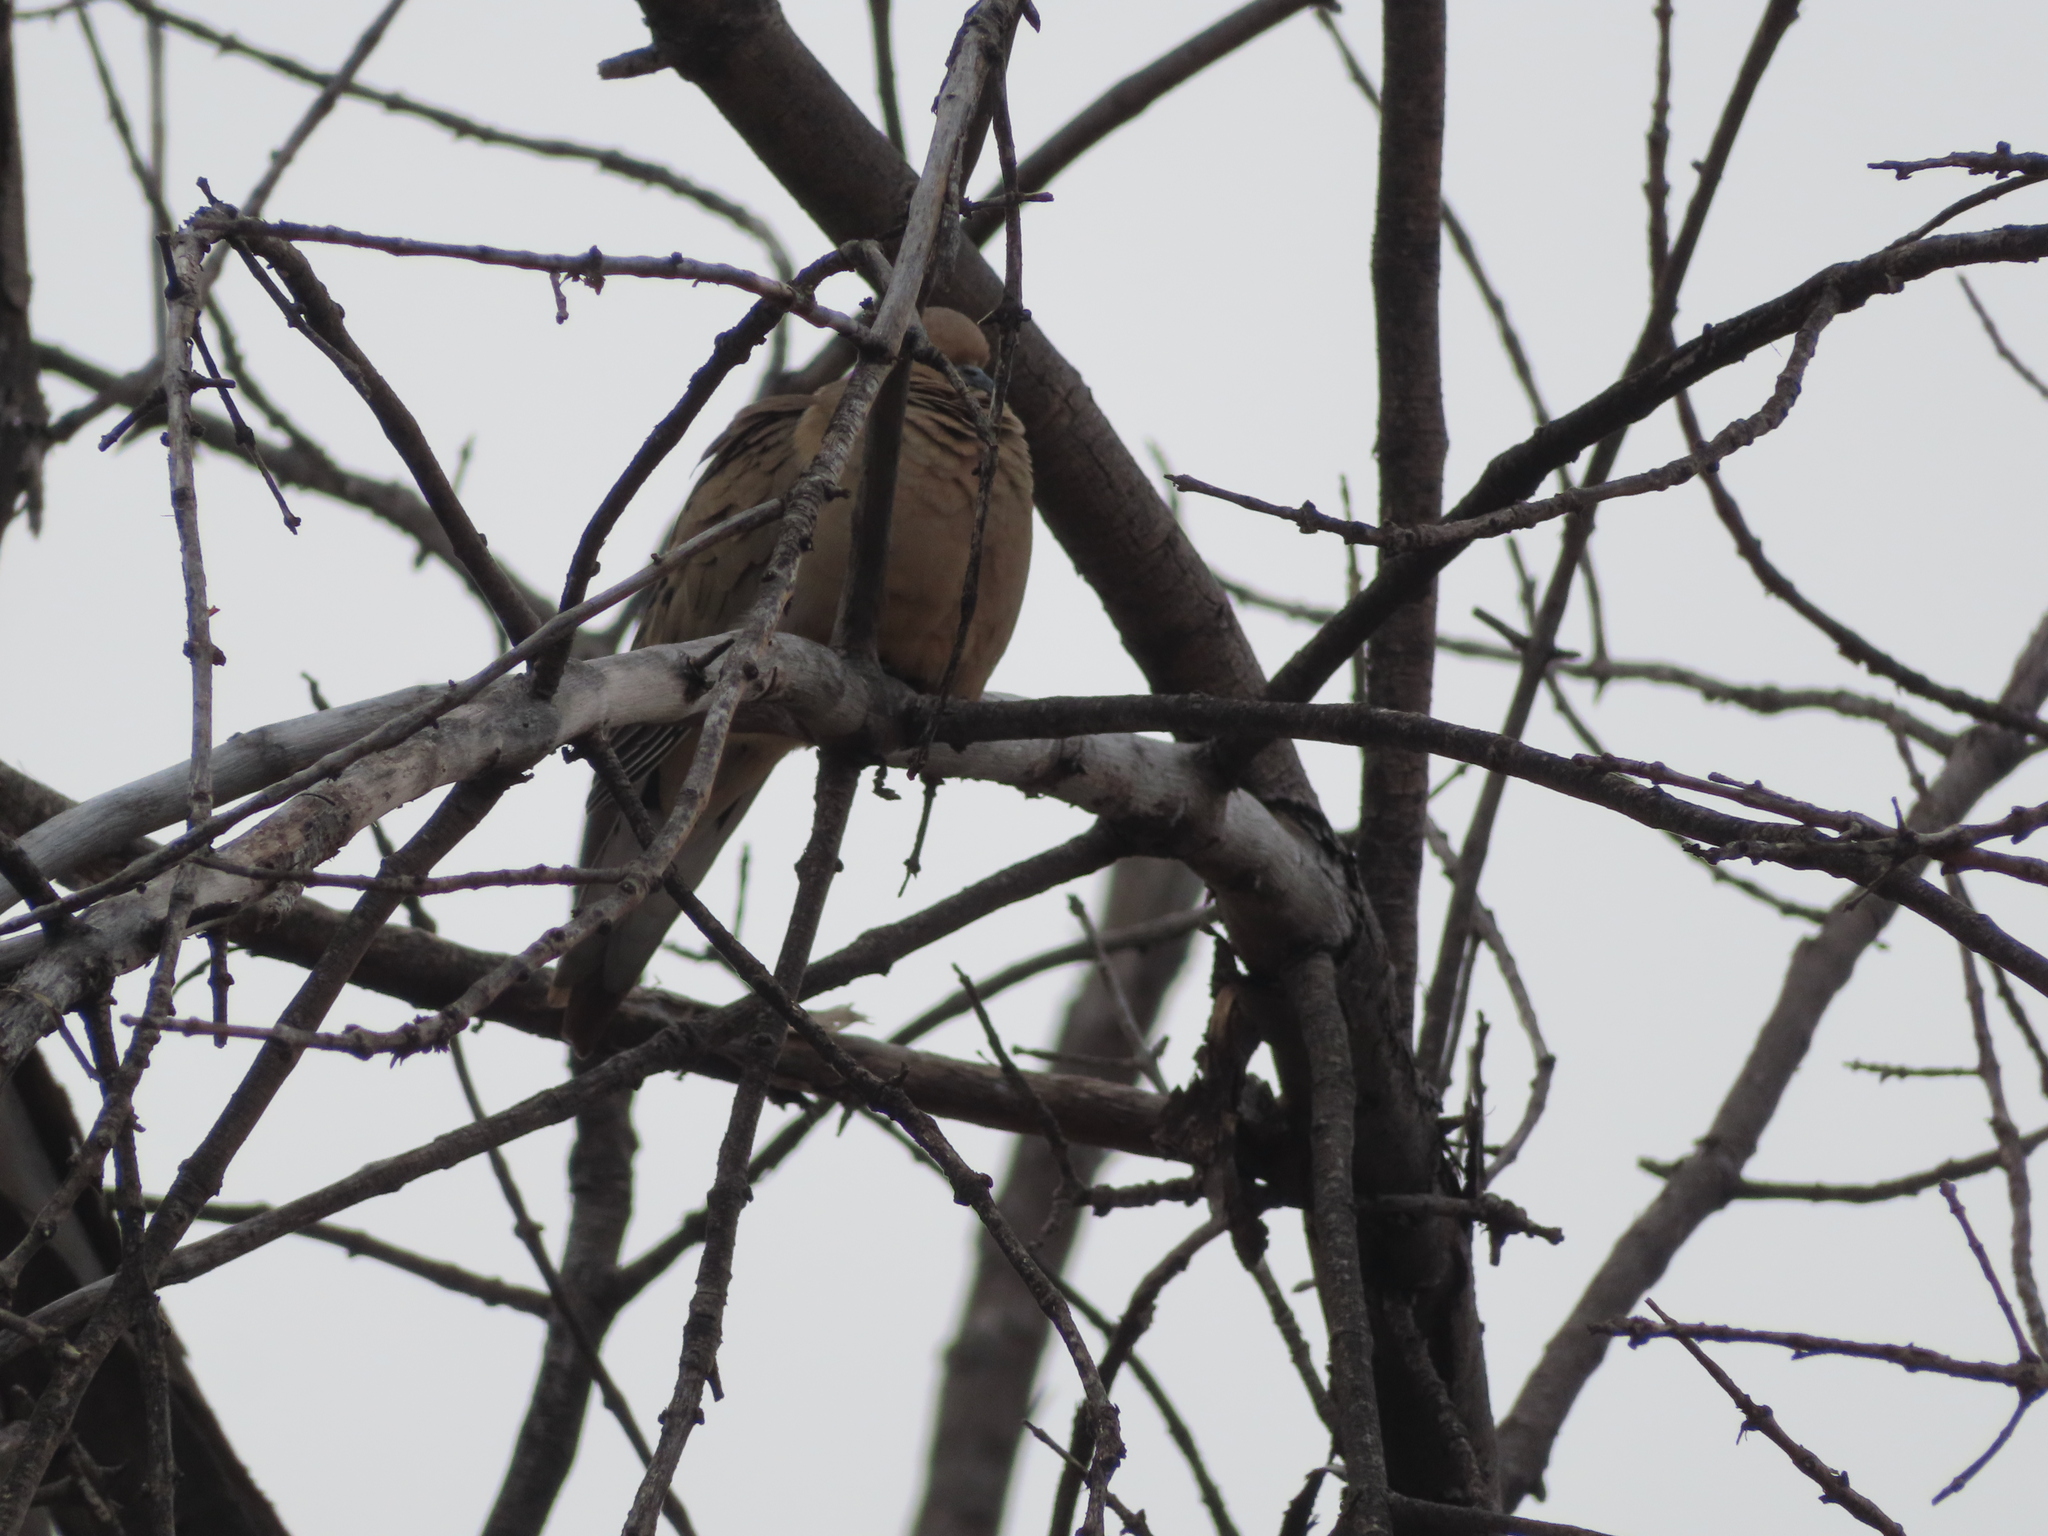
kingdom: Animalia
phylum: Chordata
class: Aves
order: Columbiformes
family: Columbidae
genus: Zenaida
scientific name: Zenaida macroura
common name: Mourning dove
